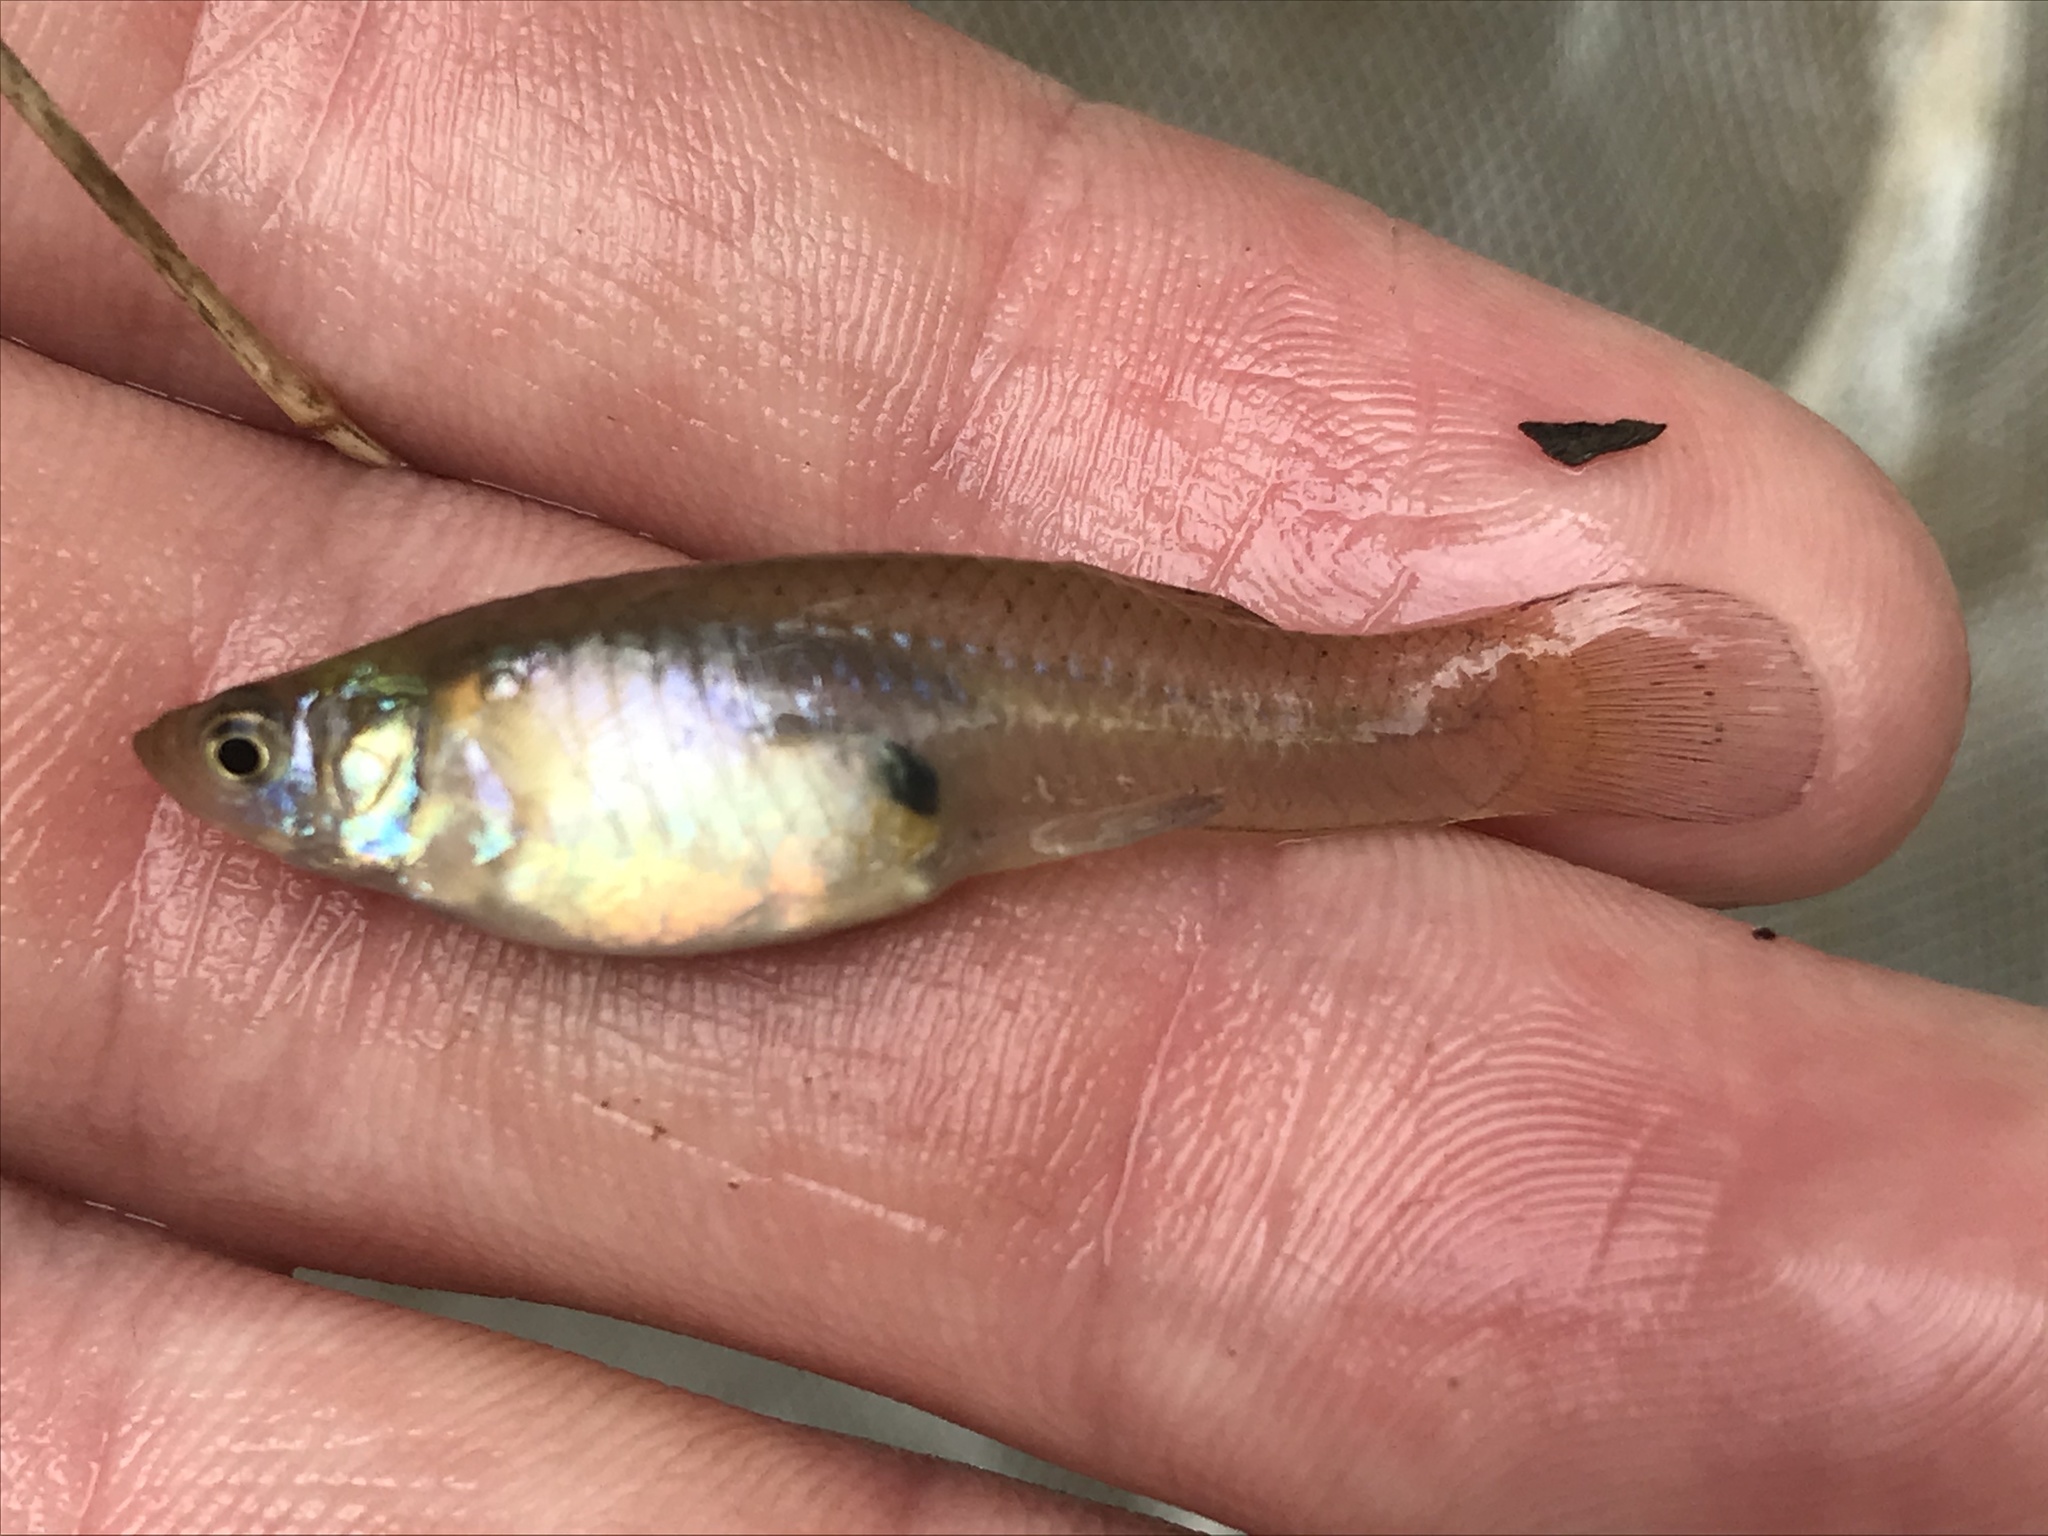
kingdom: Animalia
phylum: Chordata
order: Cyprinodontiformes
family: Poeciliidae
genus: Gambusia
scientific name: Gambusia affinis
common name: Mosquitofish
